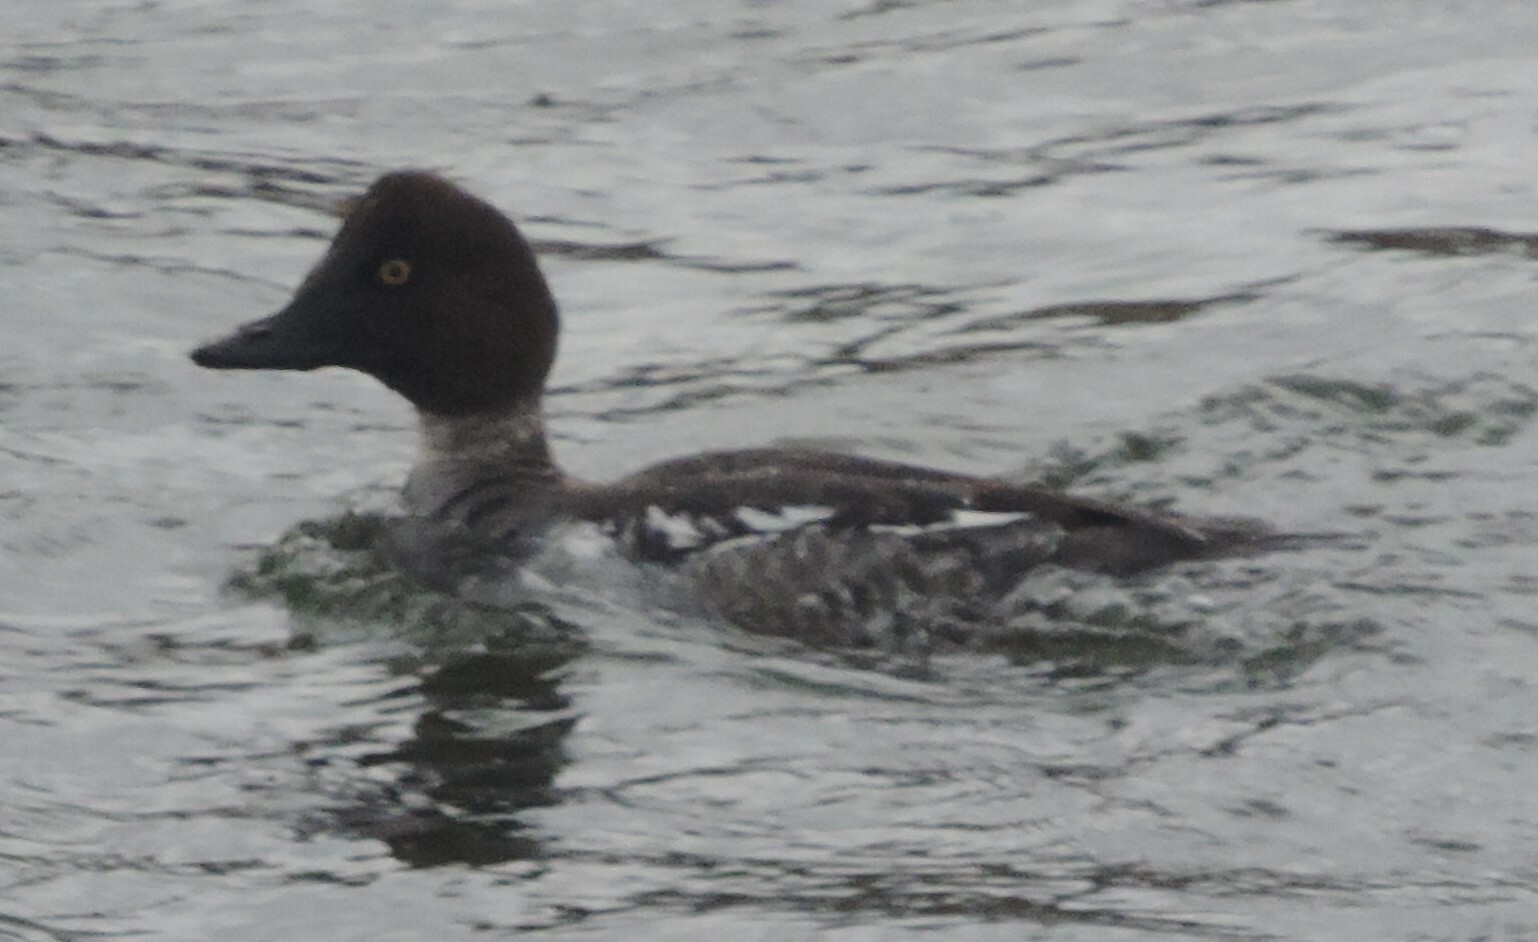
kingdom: Animalia
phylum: Chordata
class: Aves
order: Anseriformes
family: Anatidae
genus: Bucephala
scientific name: Bucephala clangula
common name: Common goldeneye
